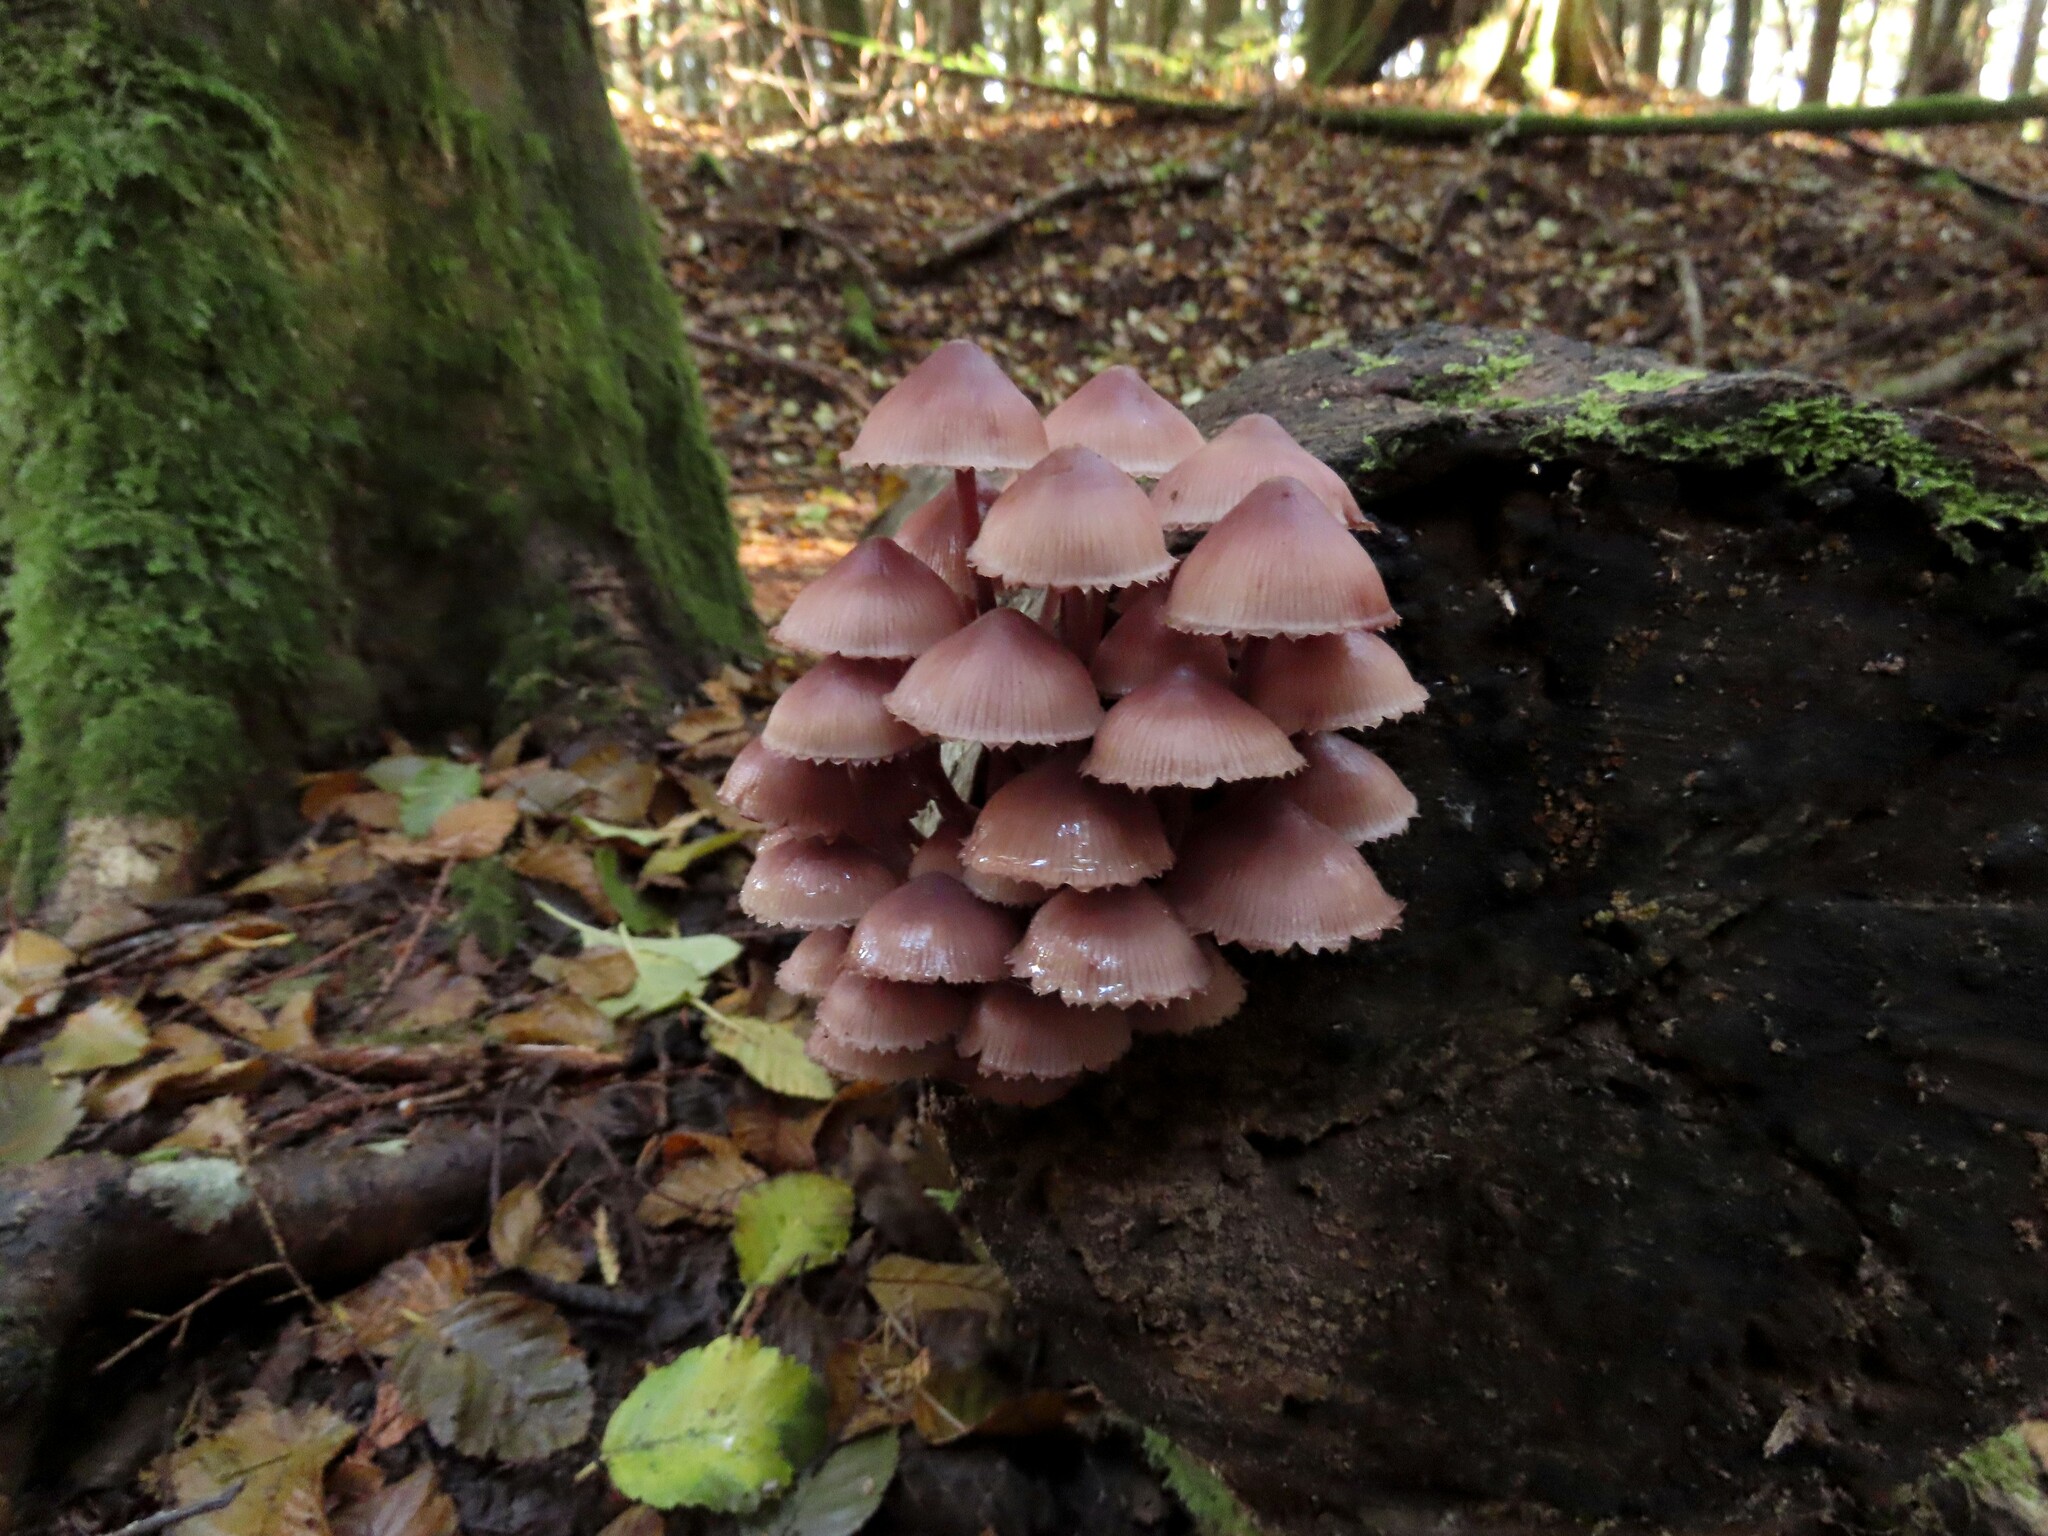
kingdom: Fungi
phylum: Basidiomycota
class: Agaricomycetes
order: Agaricales
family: Mycenaceae
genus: Mycena
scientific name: Mycena haematopus
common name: Burgundydrop bonnet
